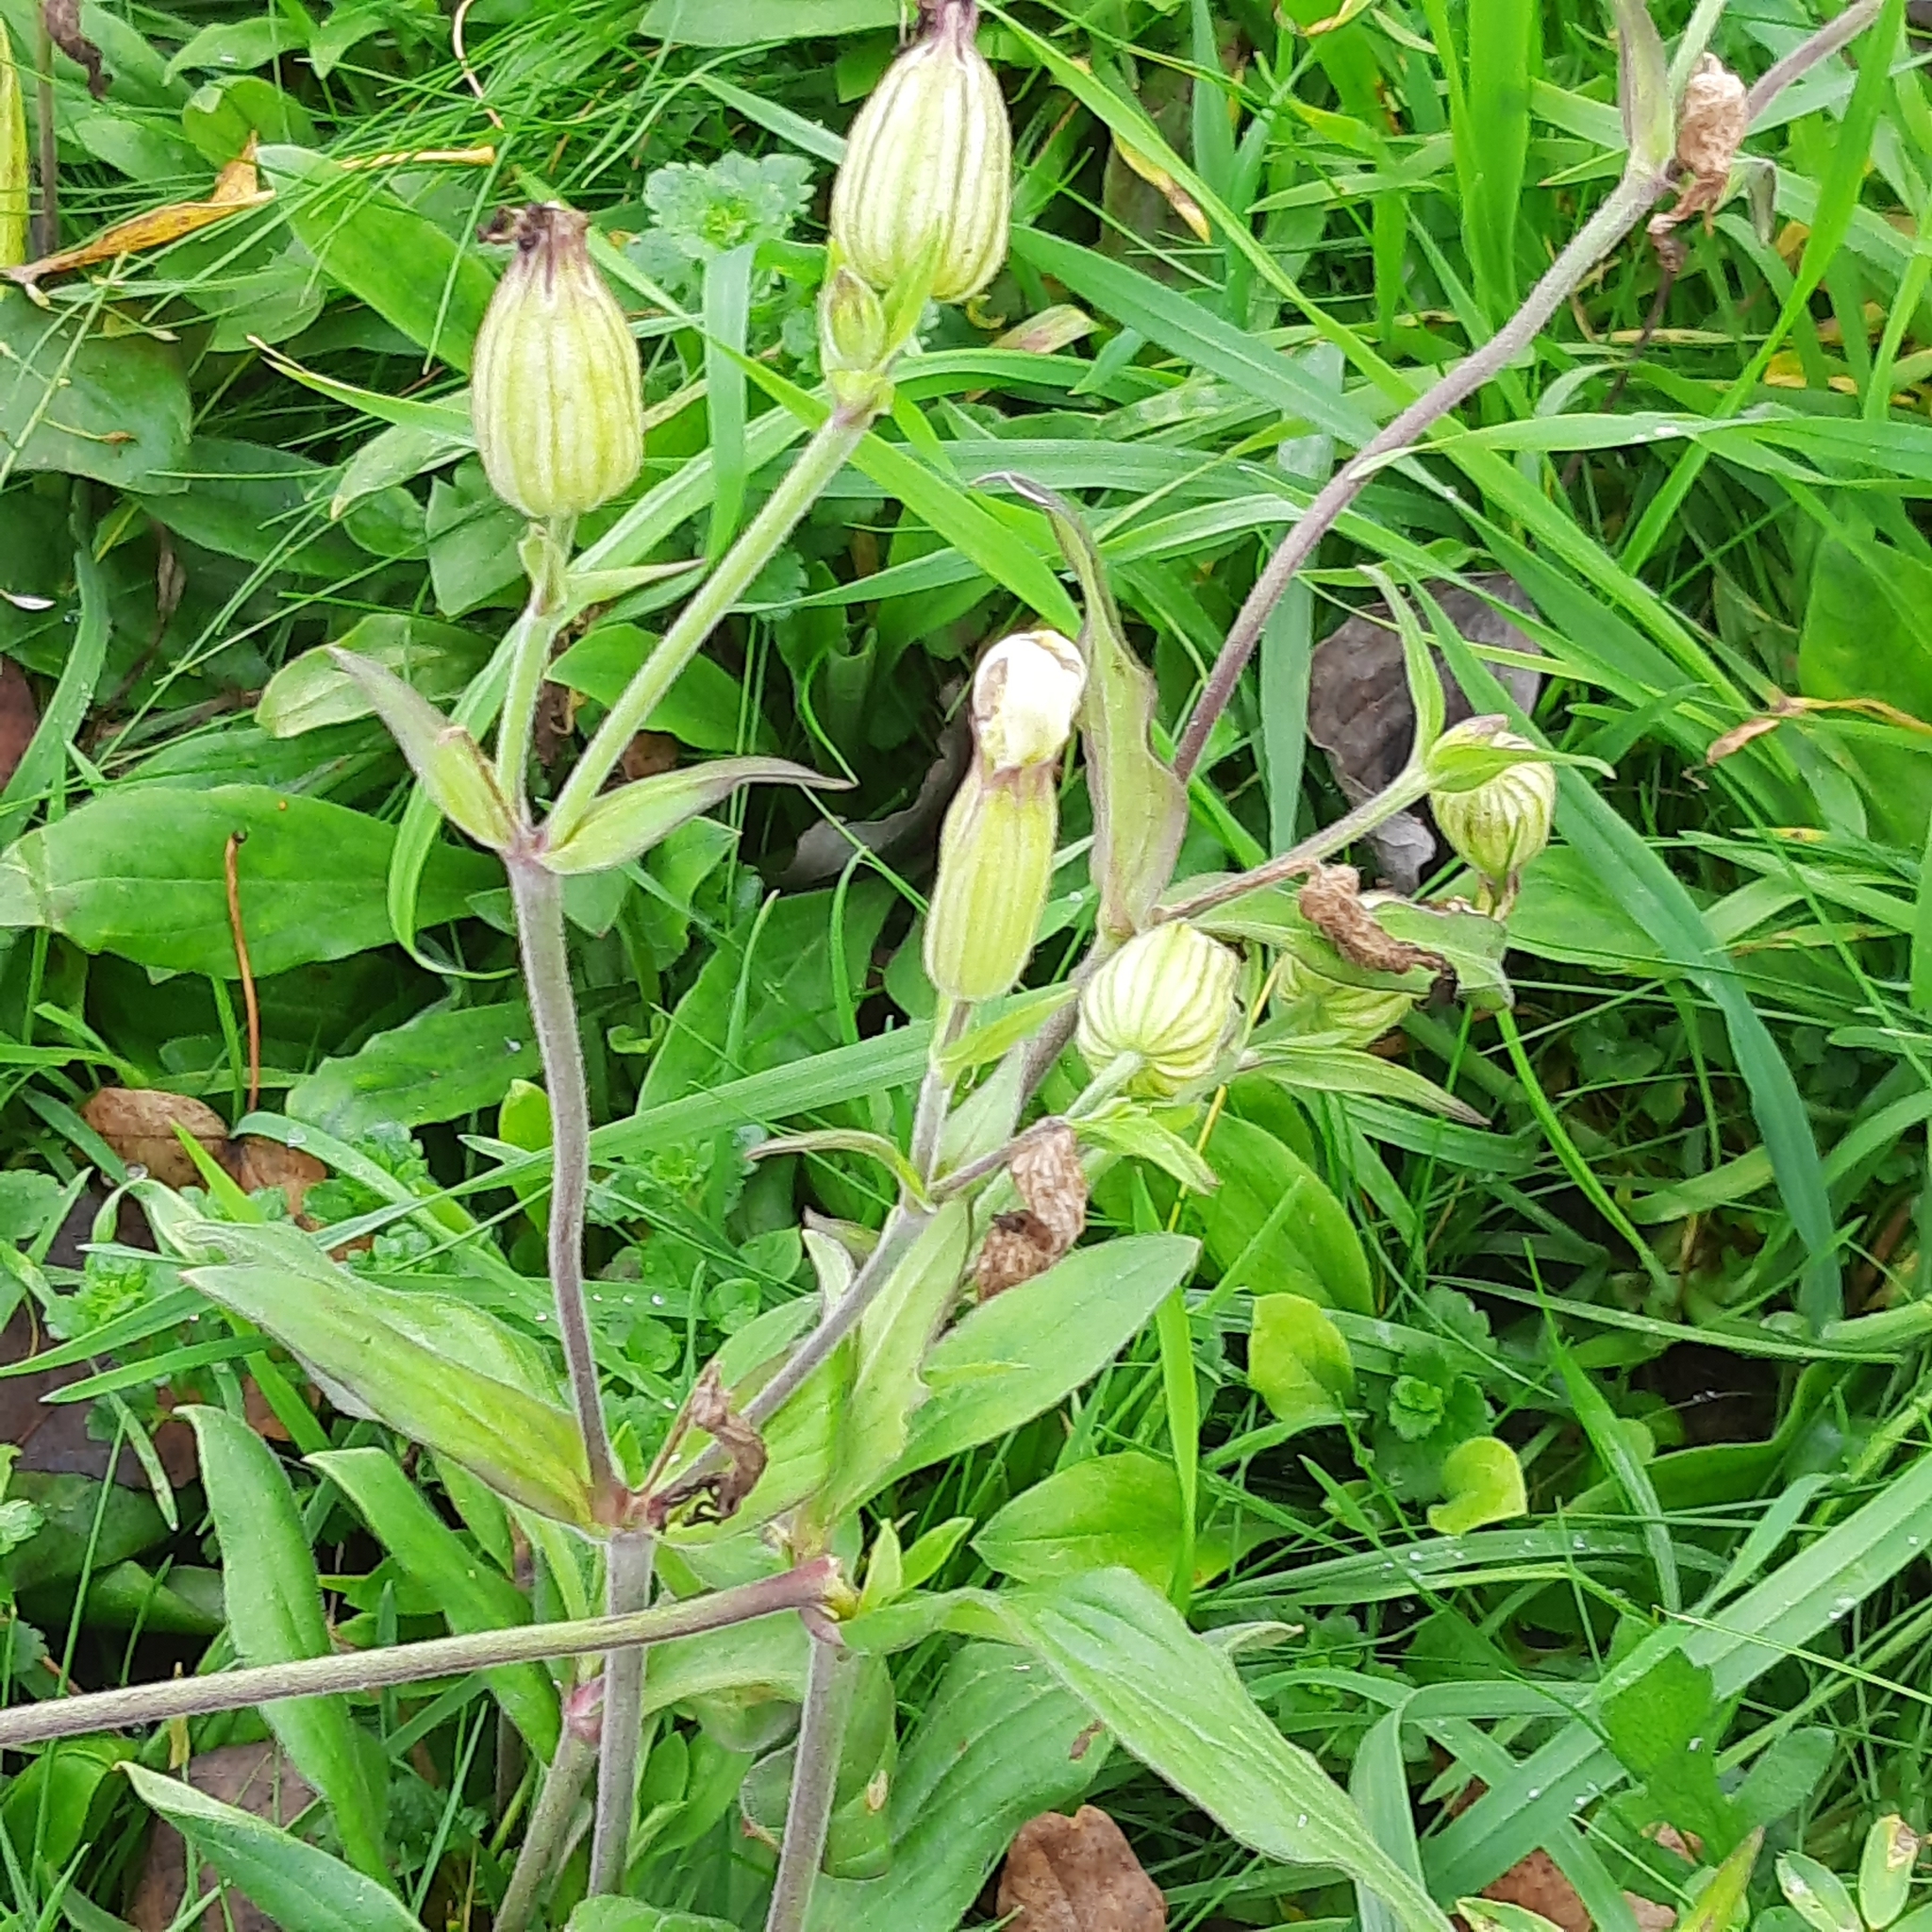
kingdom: Plantae
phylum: Tracheophyta
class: Magnoliopsida
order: Caryophyllales
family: Caryophyllaceae
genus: Silene
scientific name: Silene latifolia
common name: White campion
